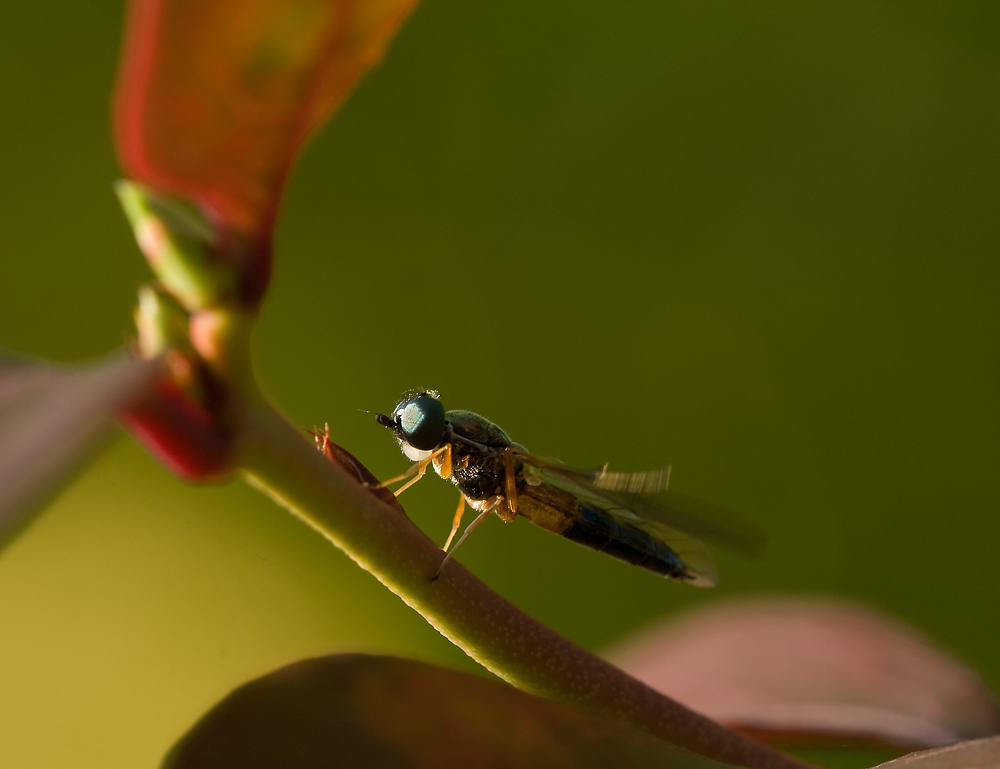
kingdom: Animalia
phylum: Arthropoda
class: Insecta
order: Diptera
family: Stratiomyidae
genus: Sargus
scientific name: Sargus bipunctatus
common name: Twin-spot centurion
